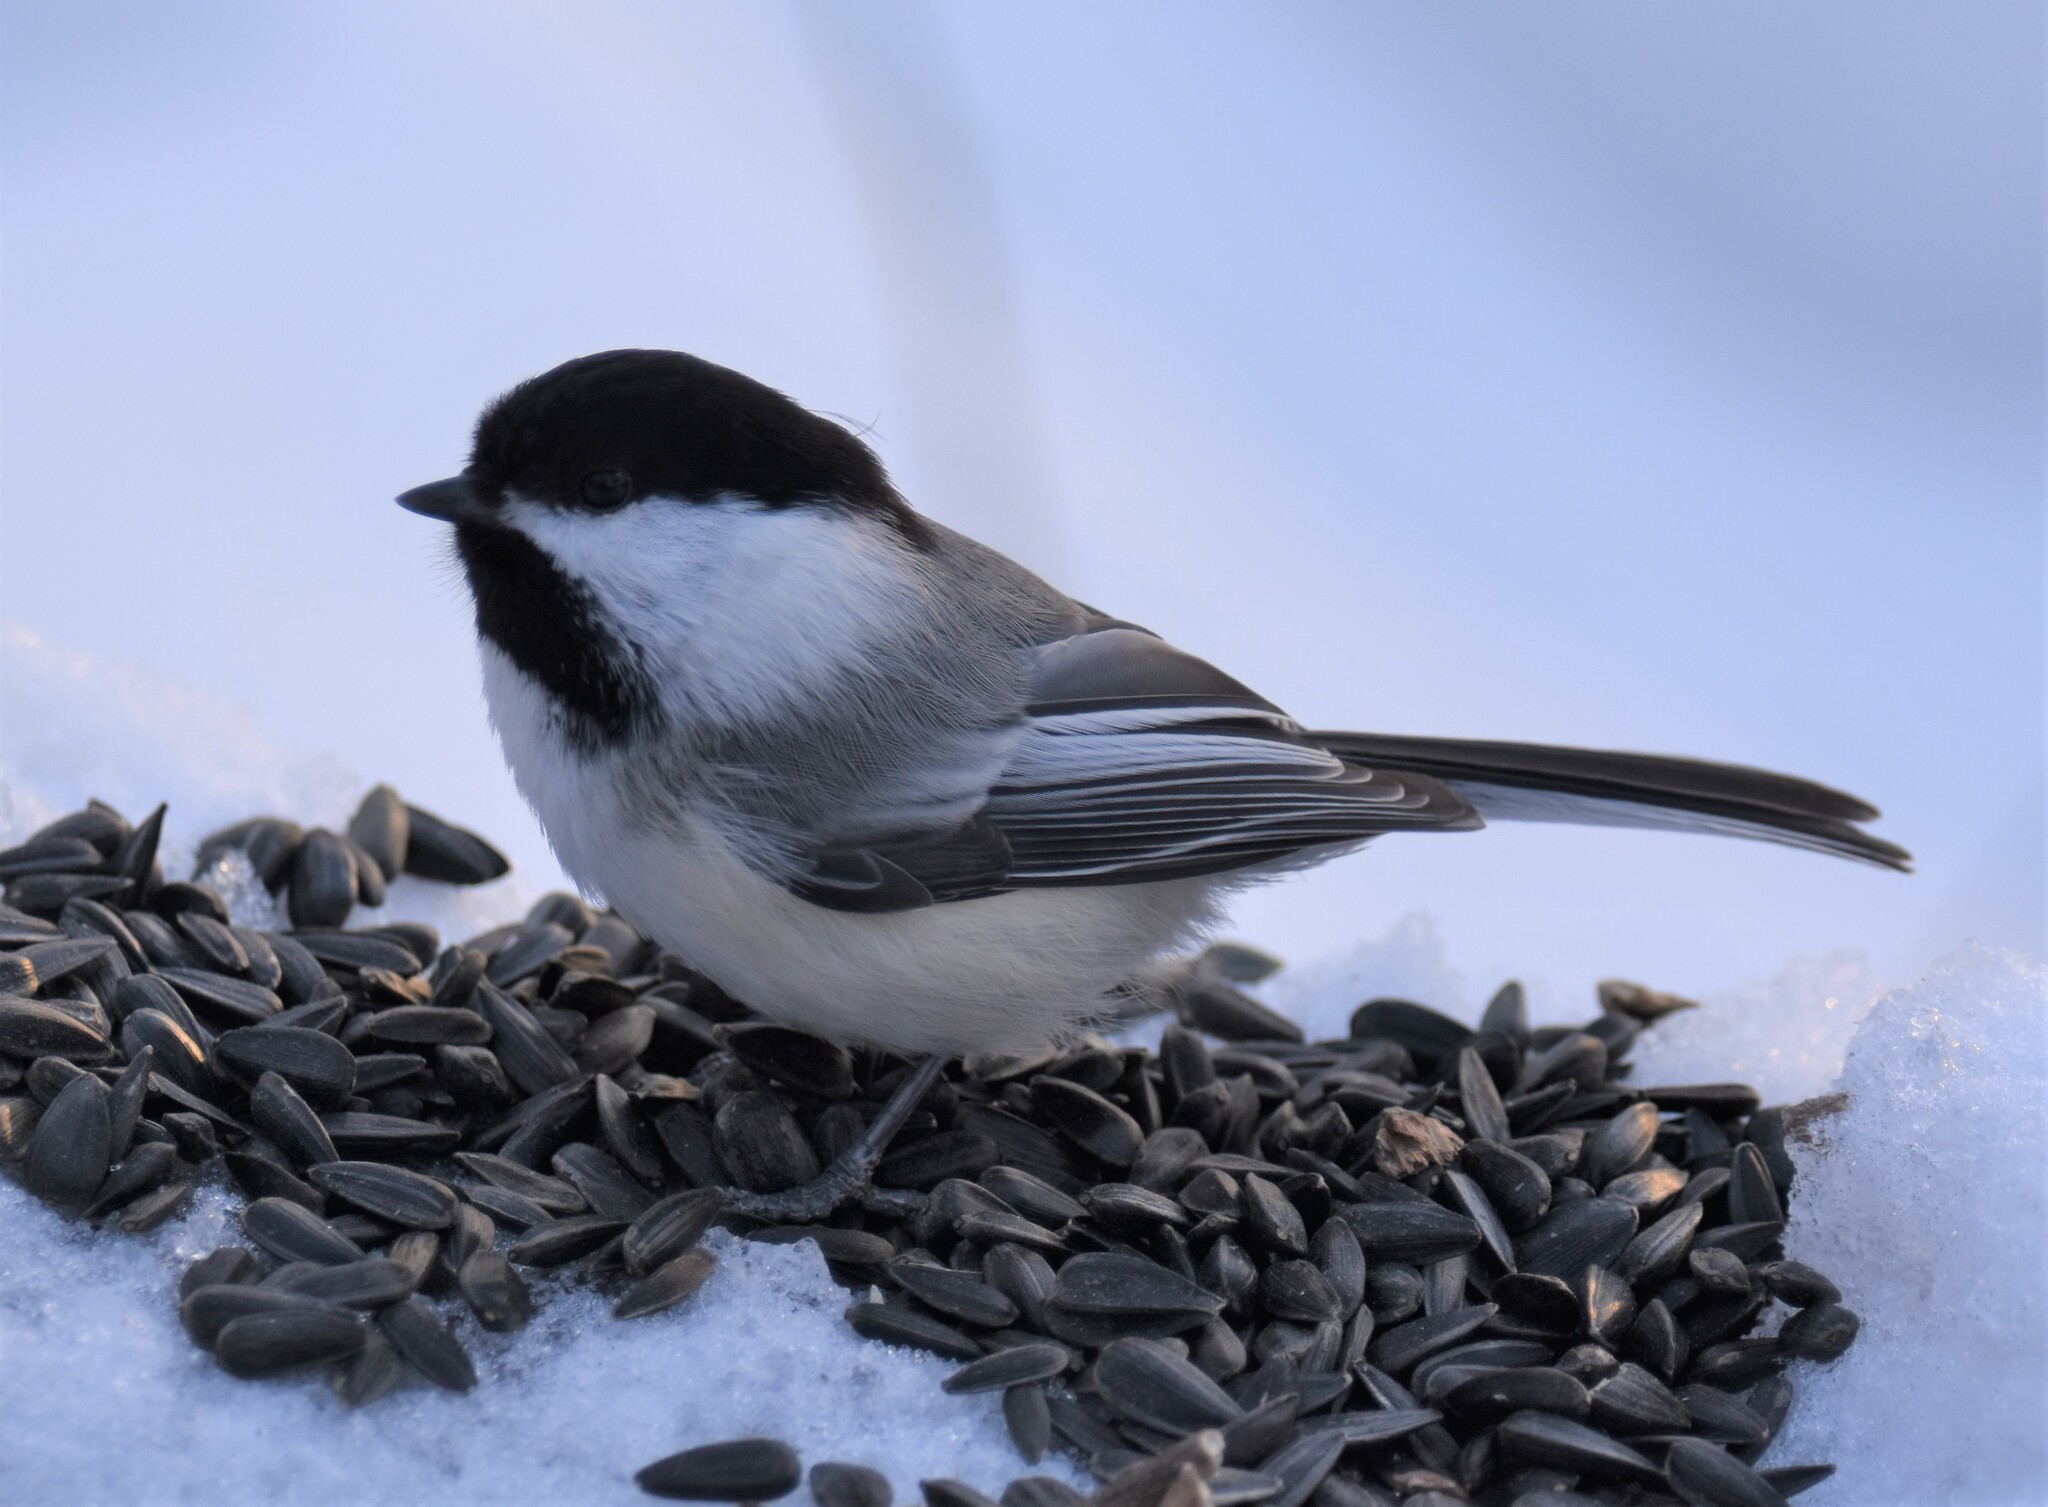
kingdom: Animalia
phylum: Chordata
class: Aves
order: Passeriformes
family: Paridae
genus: Poecile
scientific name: Poecile atricapillus
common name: Black-capped chickadee
